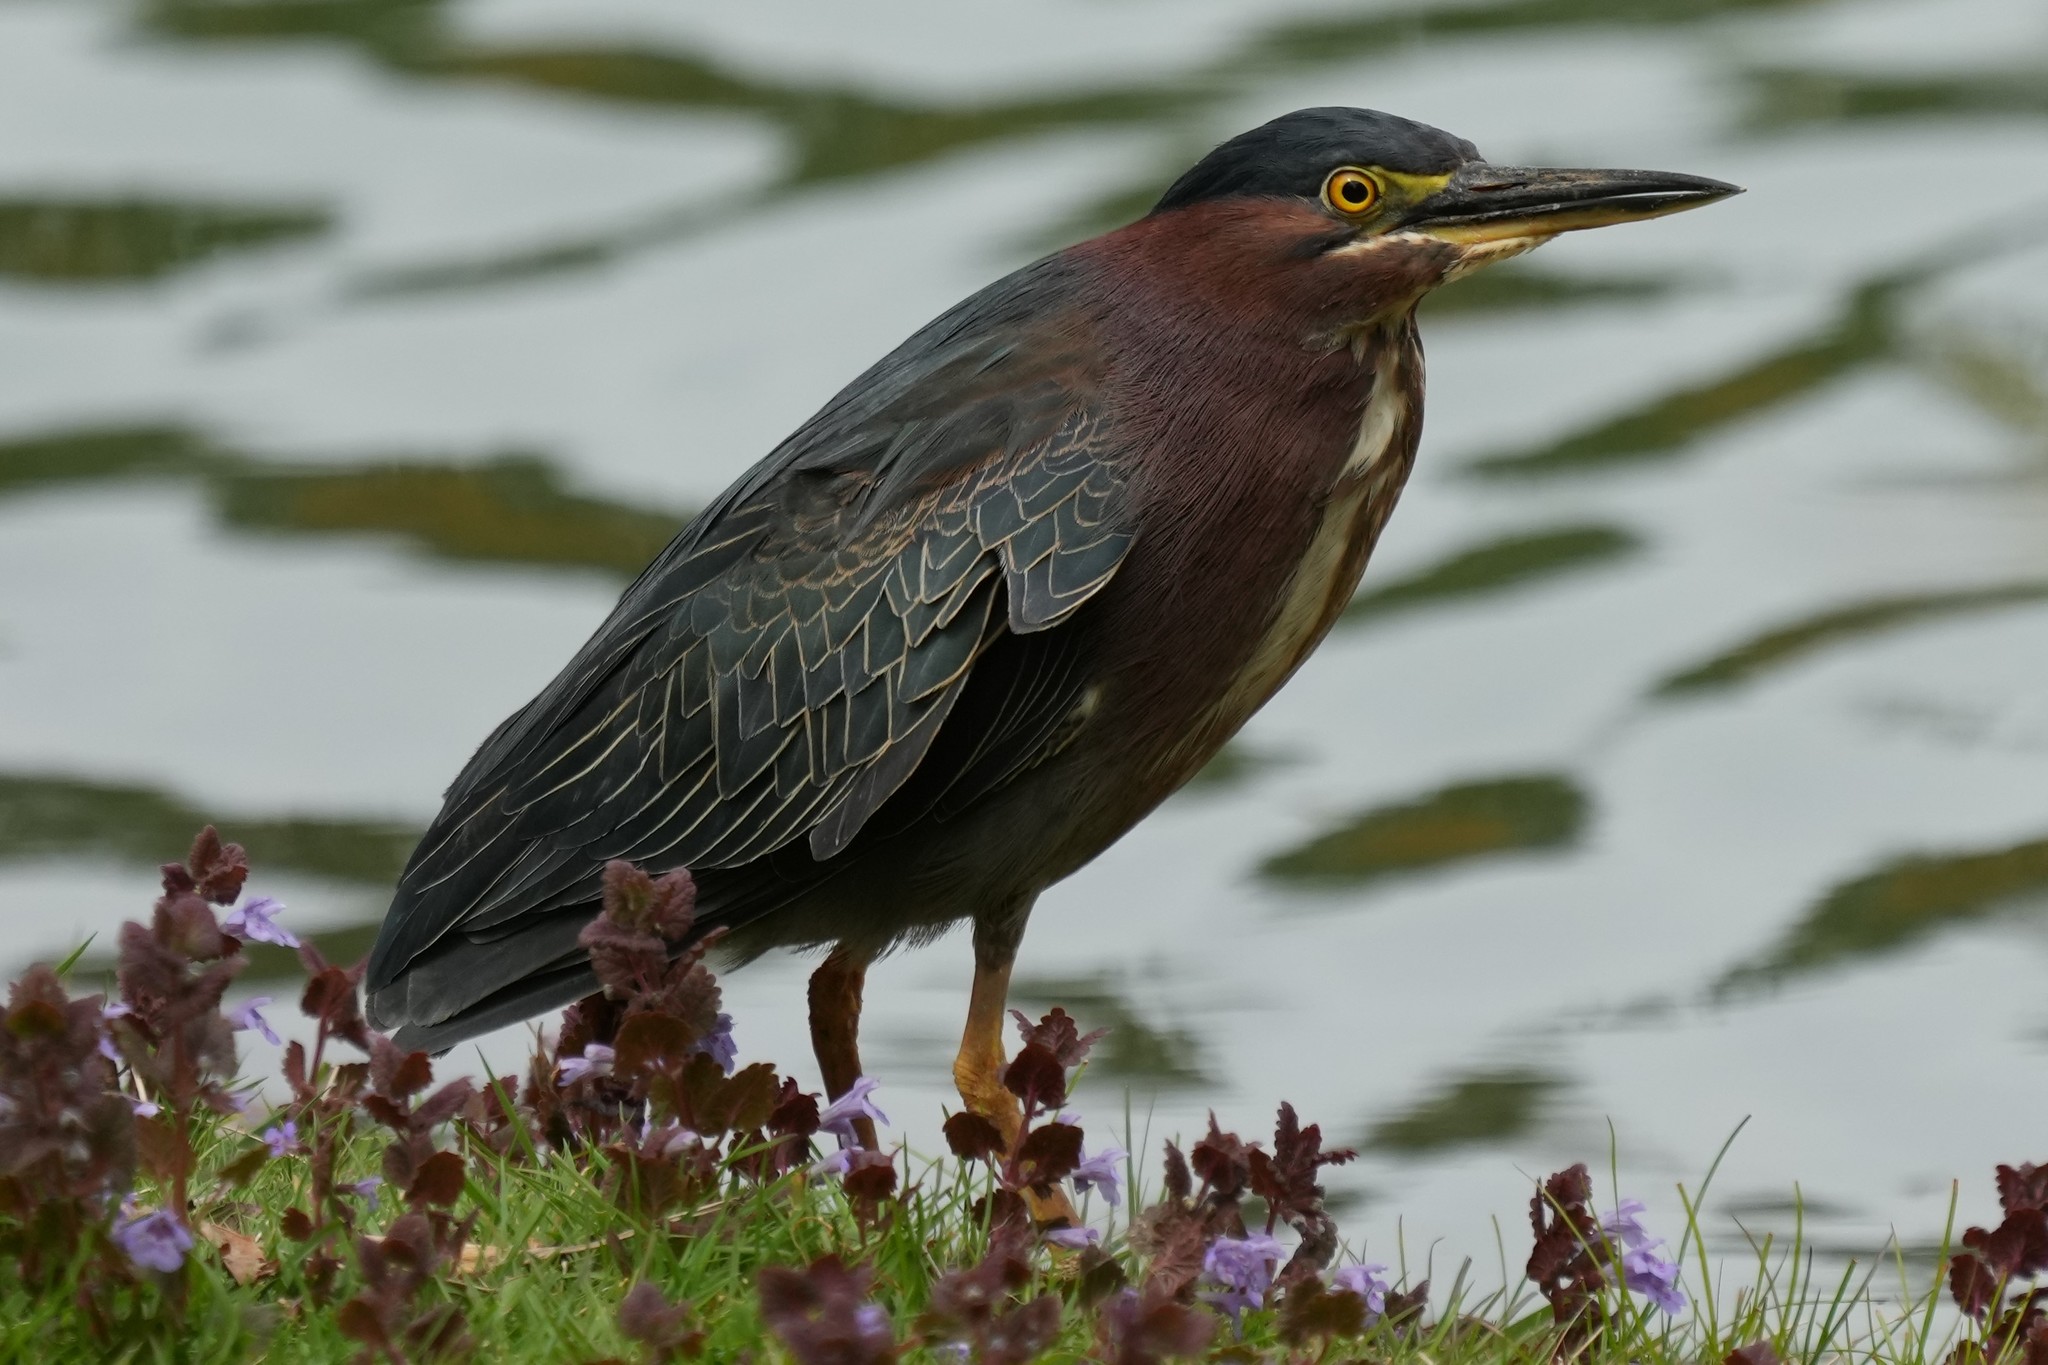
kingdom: Animalia
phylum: Chordata
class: Aves
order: Pelecaniformes
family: Ardeidae
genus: Butorides
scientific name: Butorides virescens
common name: Green heron
